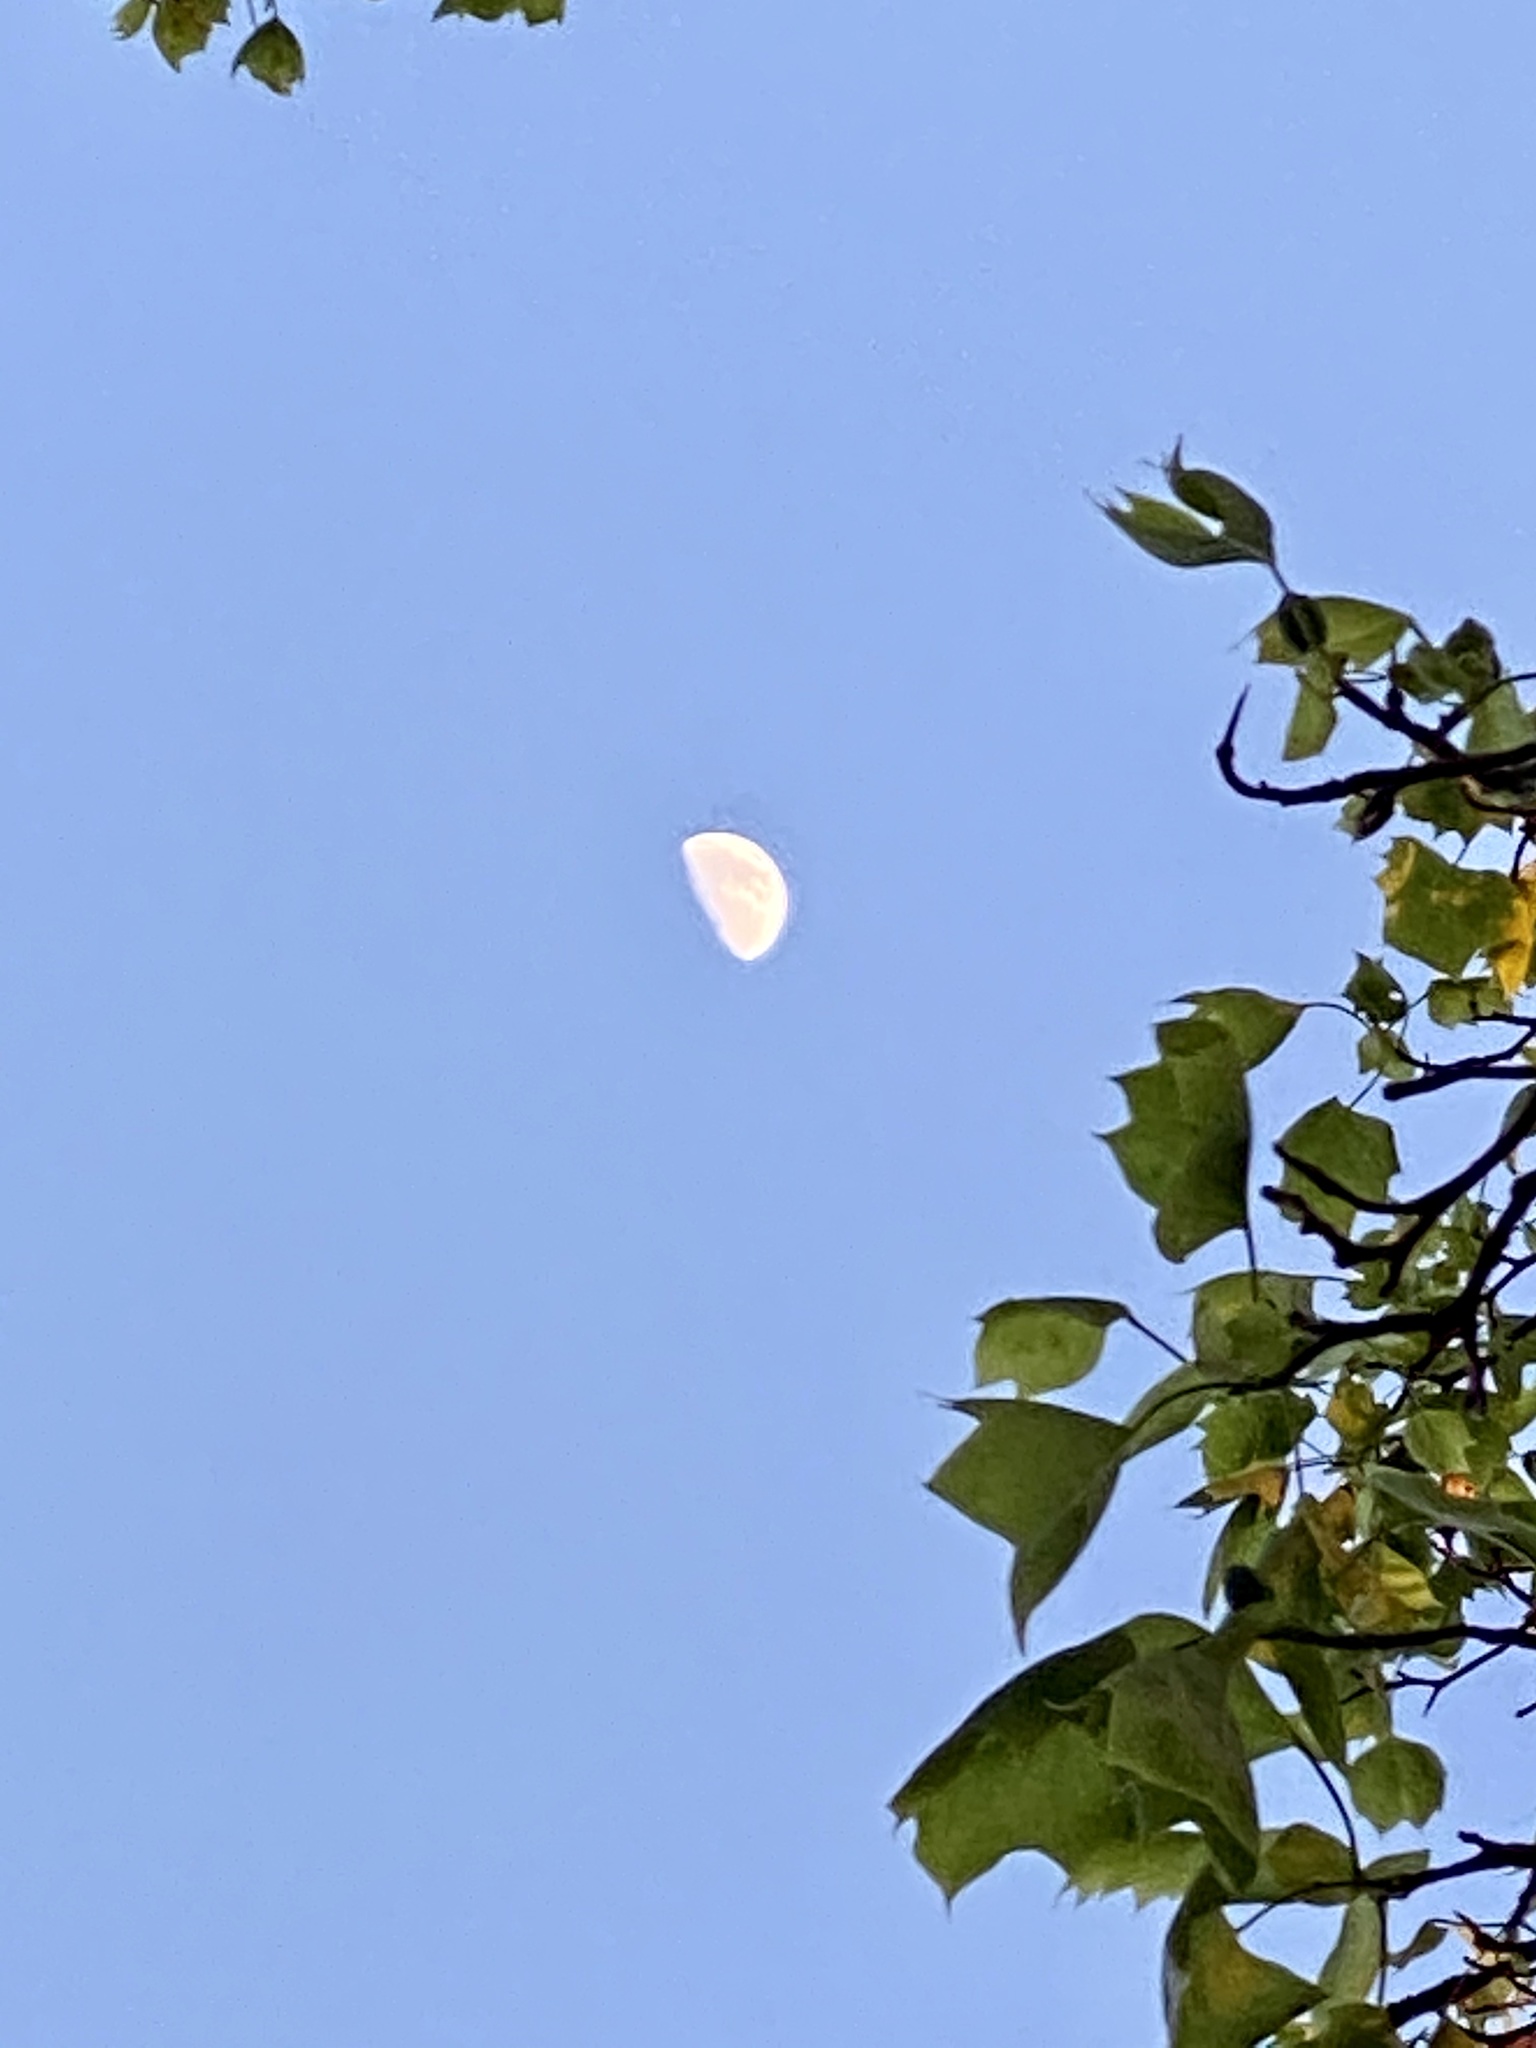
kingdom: Plantae
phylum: Tracheophyta
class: Magnoliopsida
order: Magnoliales
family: Magnoliaceae
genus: Liriodendron
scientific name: Liriodendron tulipifera
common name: Tulip tree
